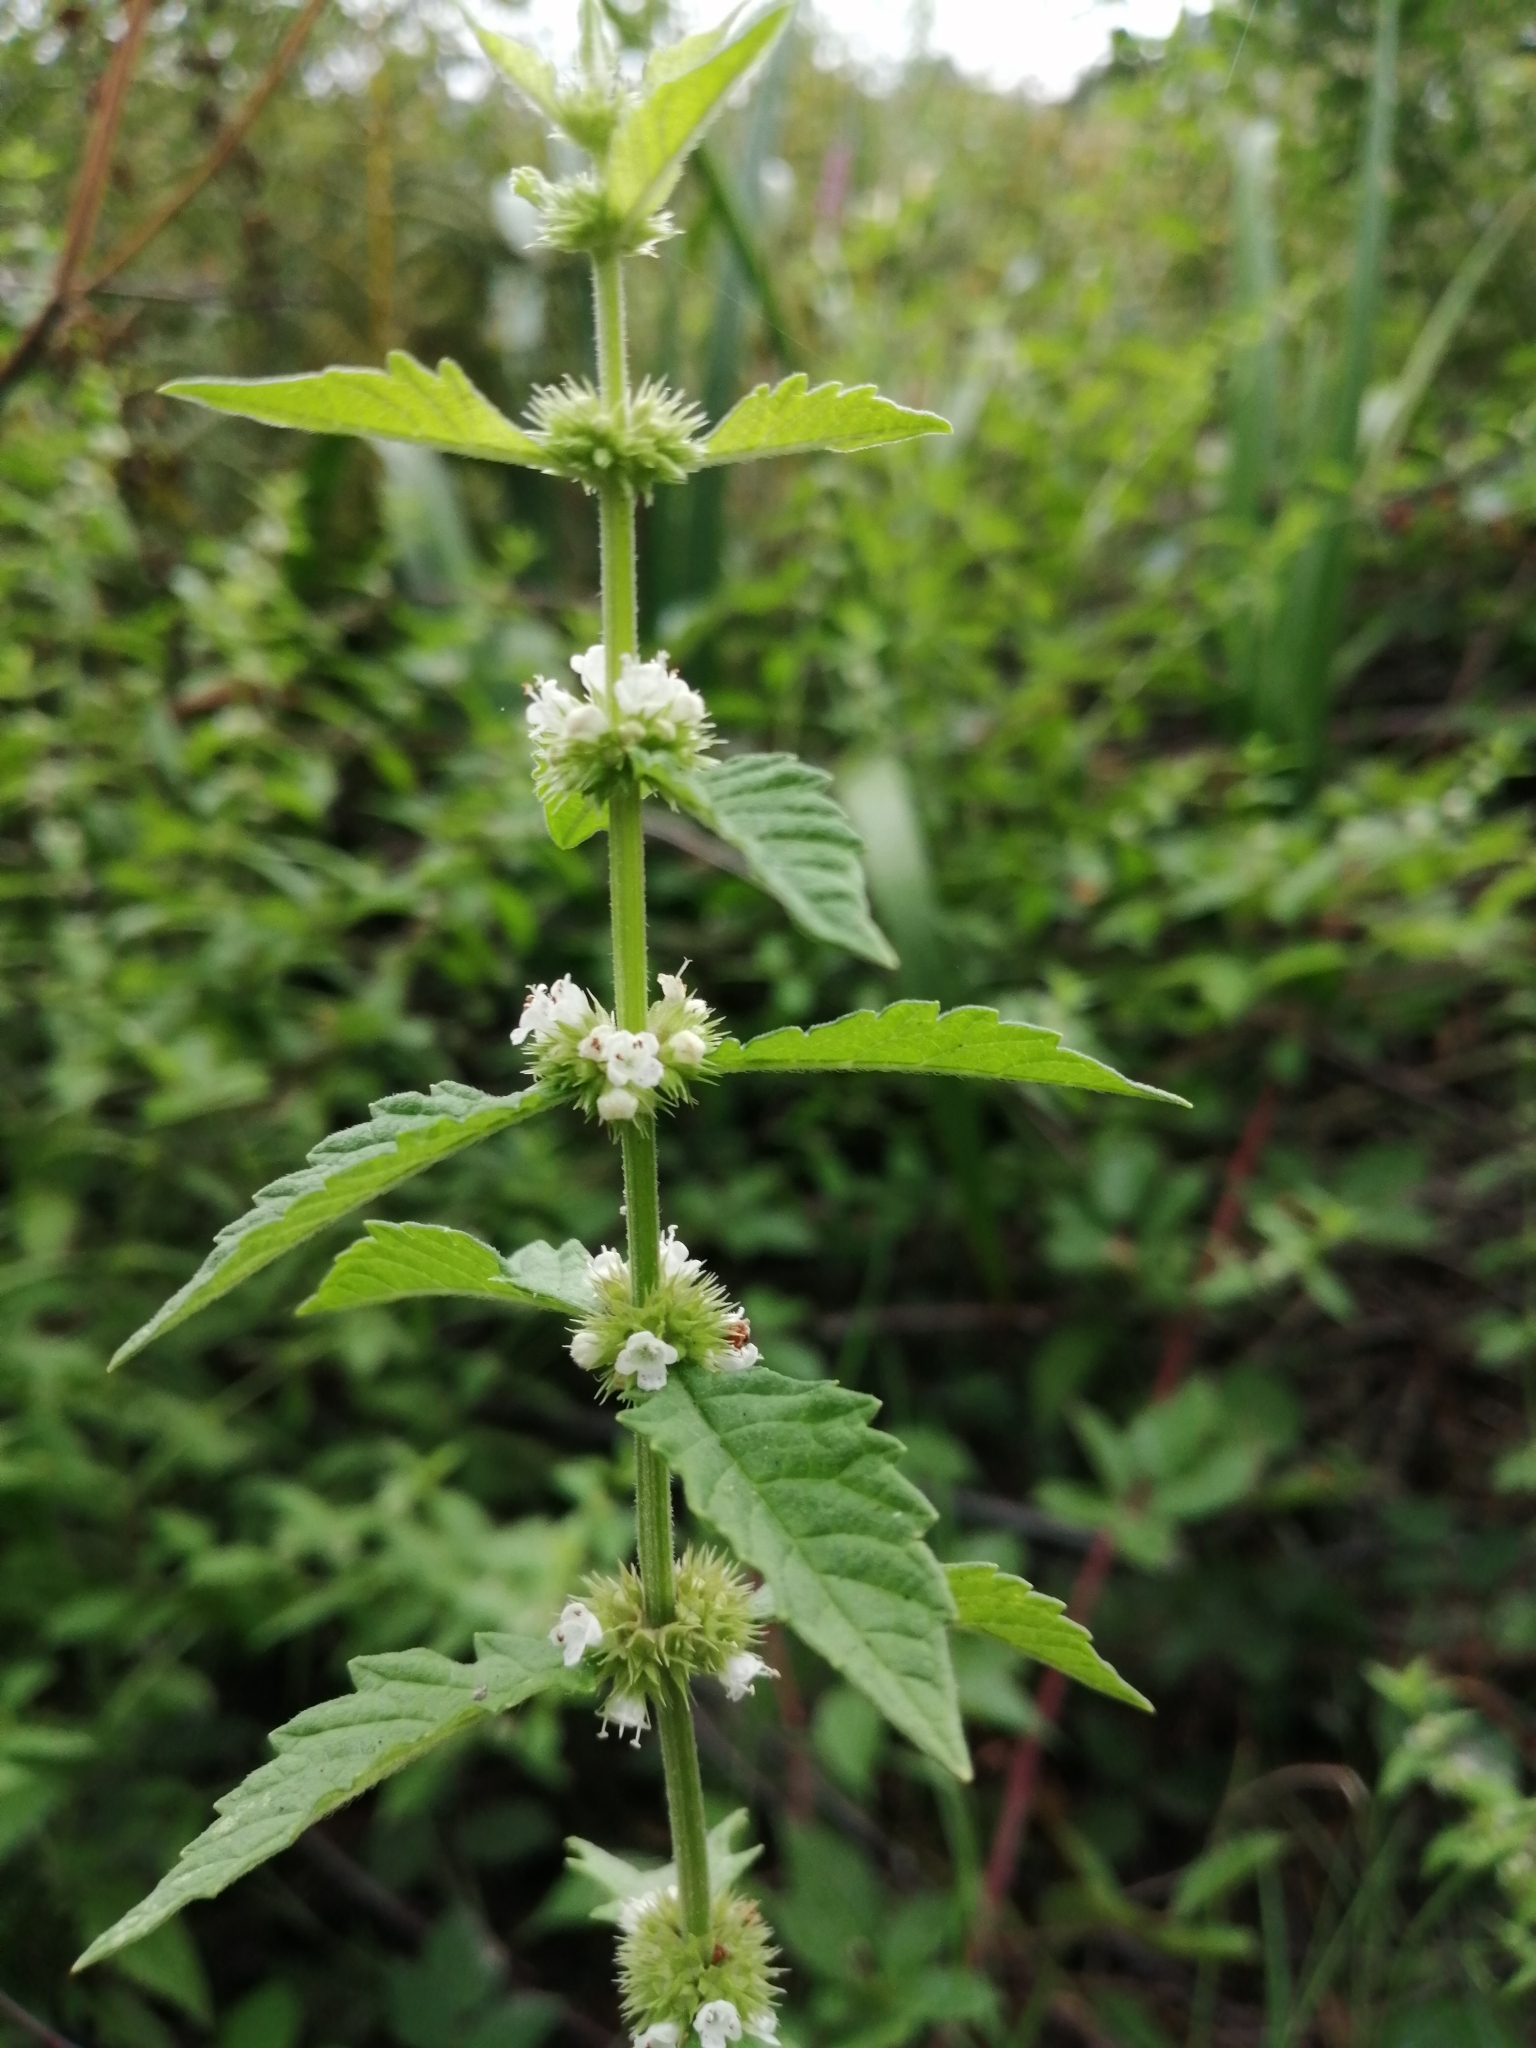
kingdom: Plantae
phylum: Tracheophyta
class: Magnoliopsida
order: Lamiales
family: Lamiaceae
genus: Lycopus
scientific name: Lycopus europaeus
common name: European bugleweed
